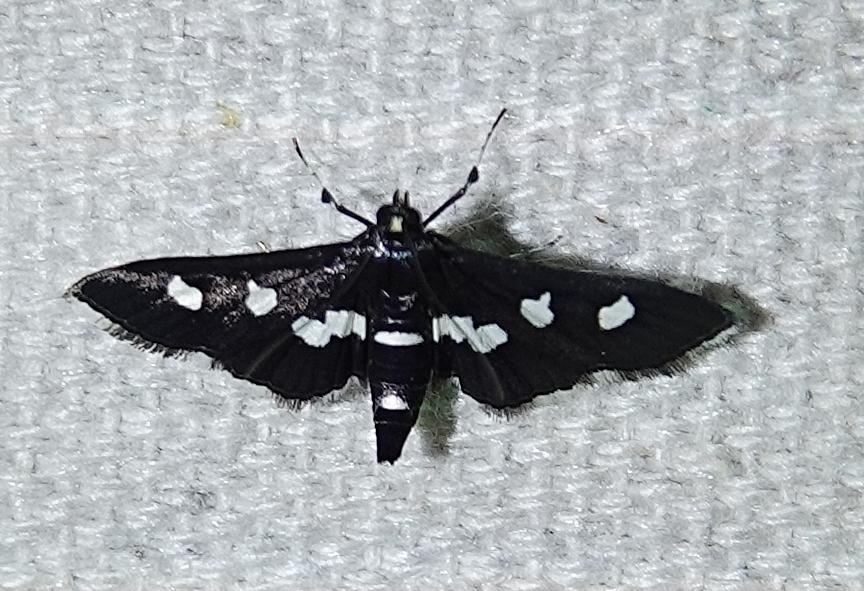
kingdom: Animalia
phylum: Arthropoda
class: Insecta
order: Lepidoptera
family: Crambidae
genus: Desmia
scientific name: Desmia
